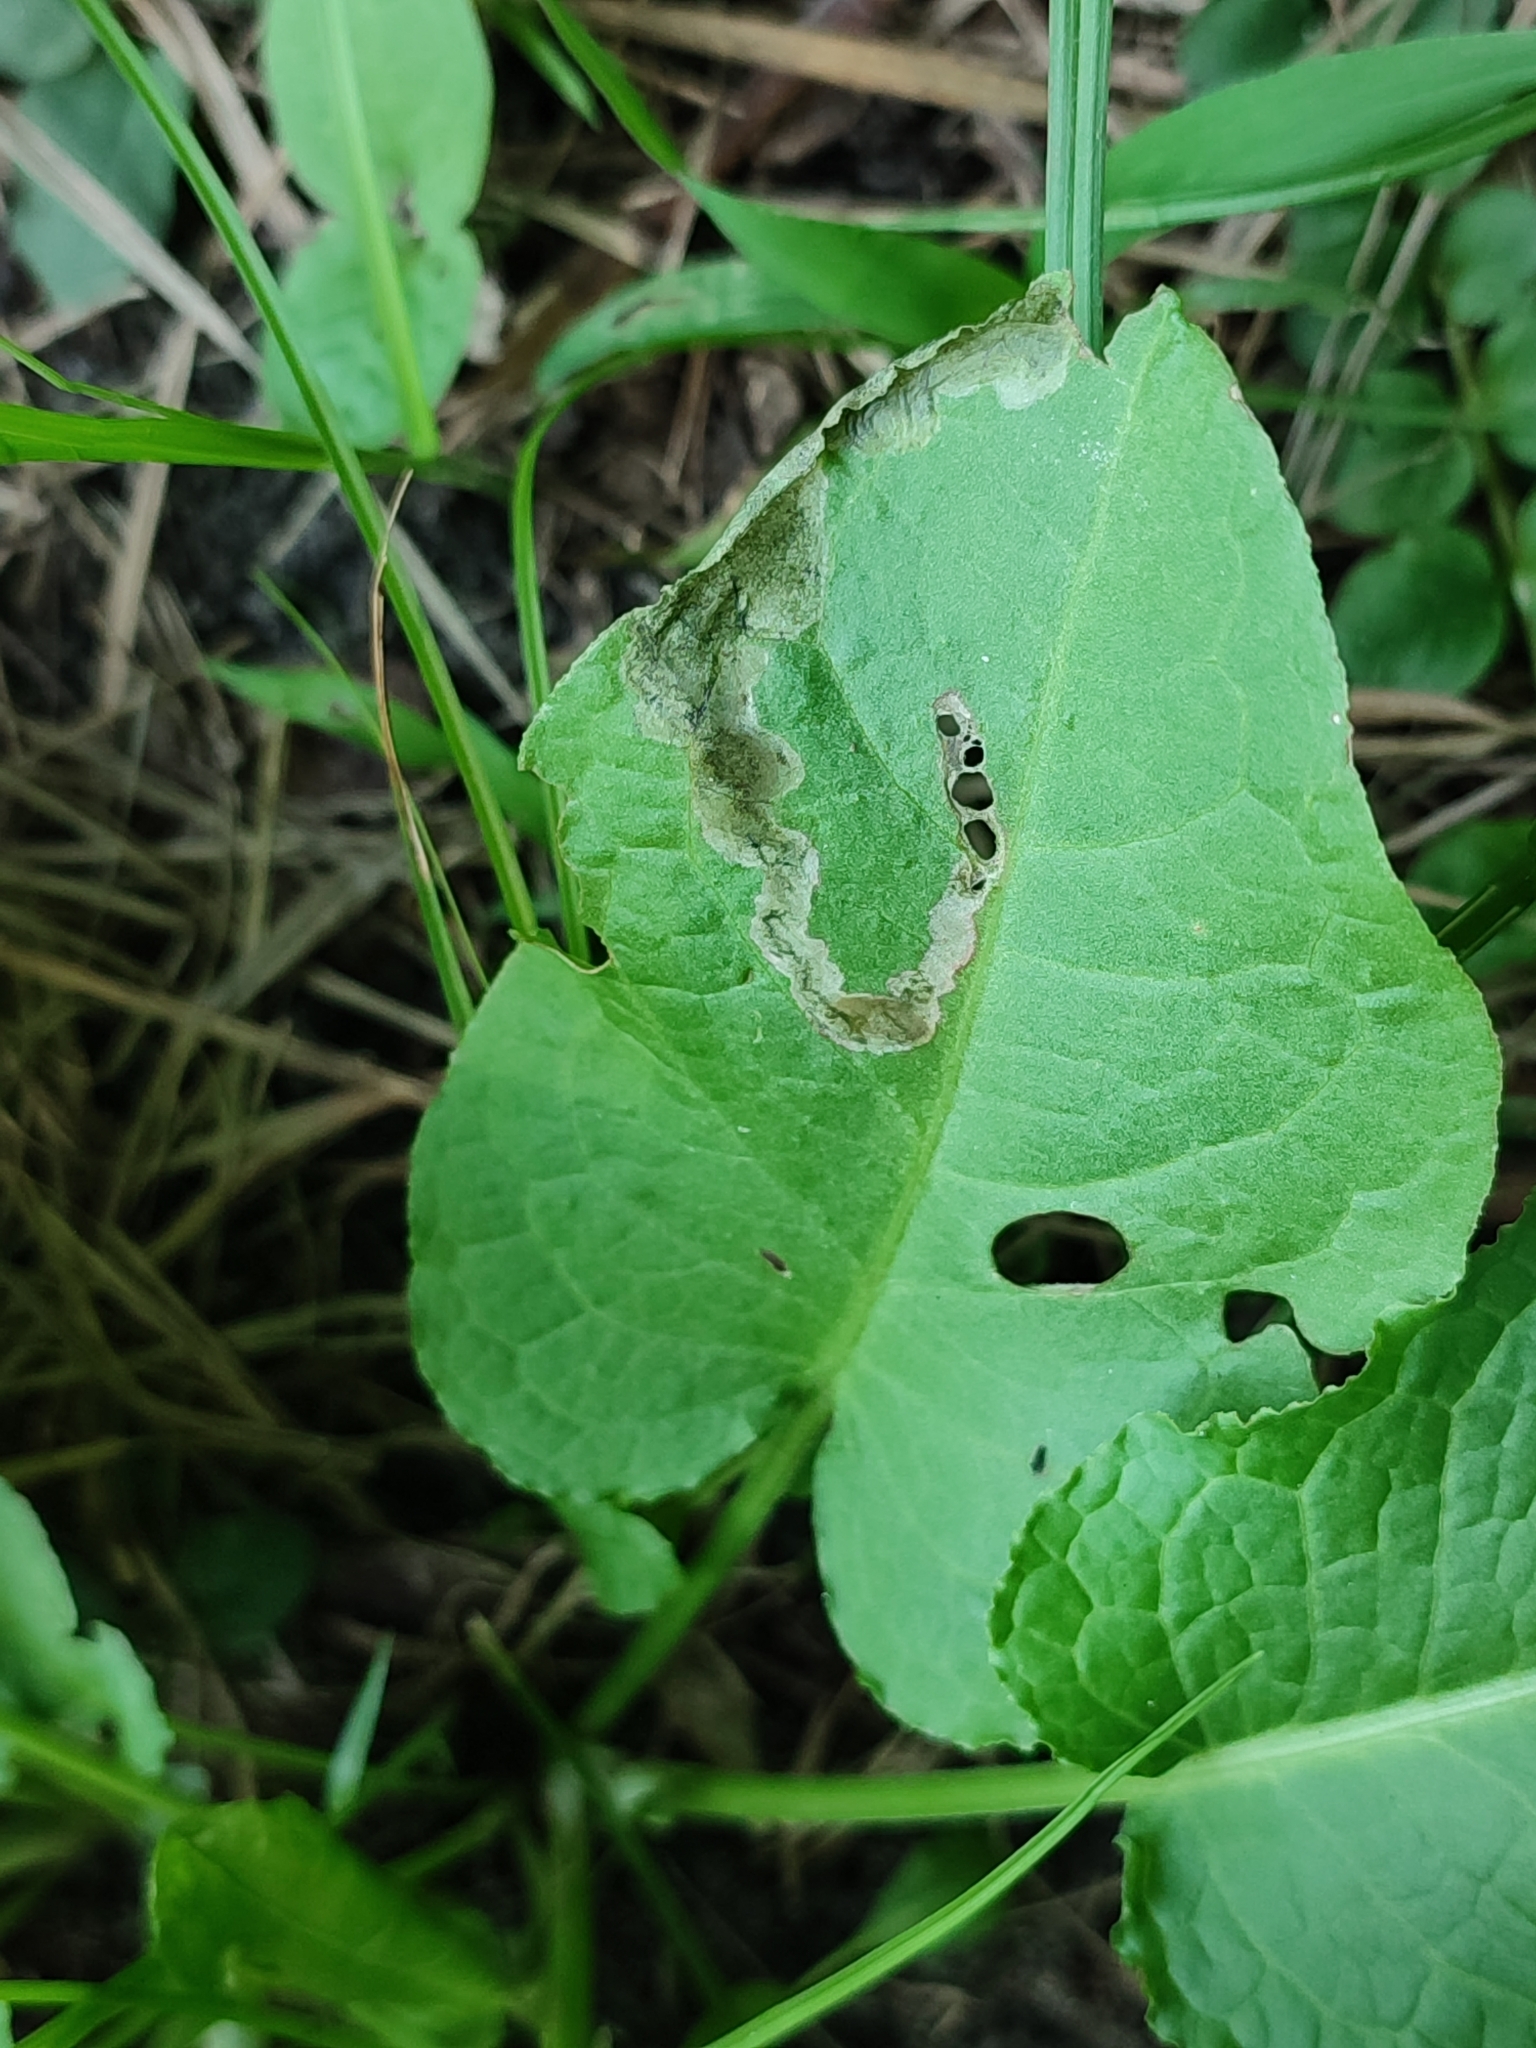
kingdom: Plantae
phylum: Tracheophyta
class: Magnoliopsida
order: Caryophyllales
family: Polygonaceae
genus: Rumex
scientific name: Rumex obtusifolius
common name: Bitter dock
